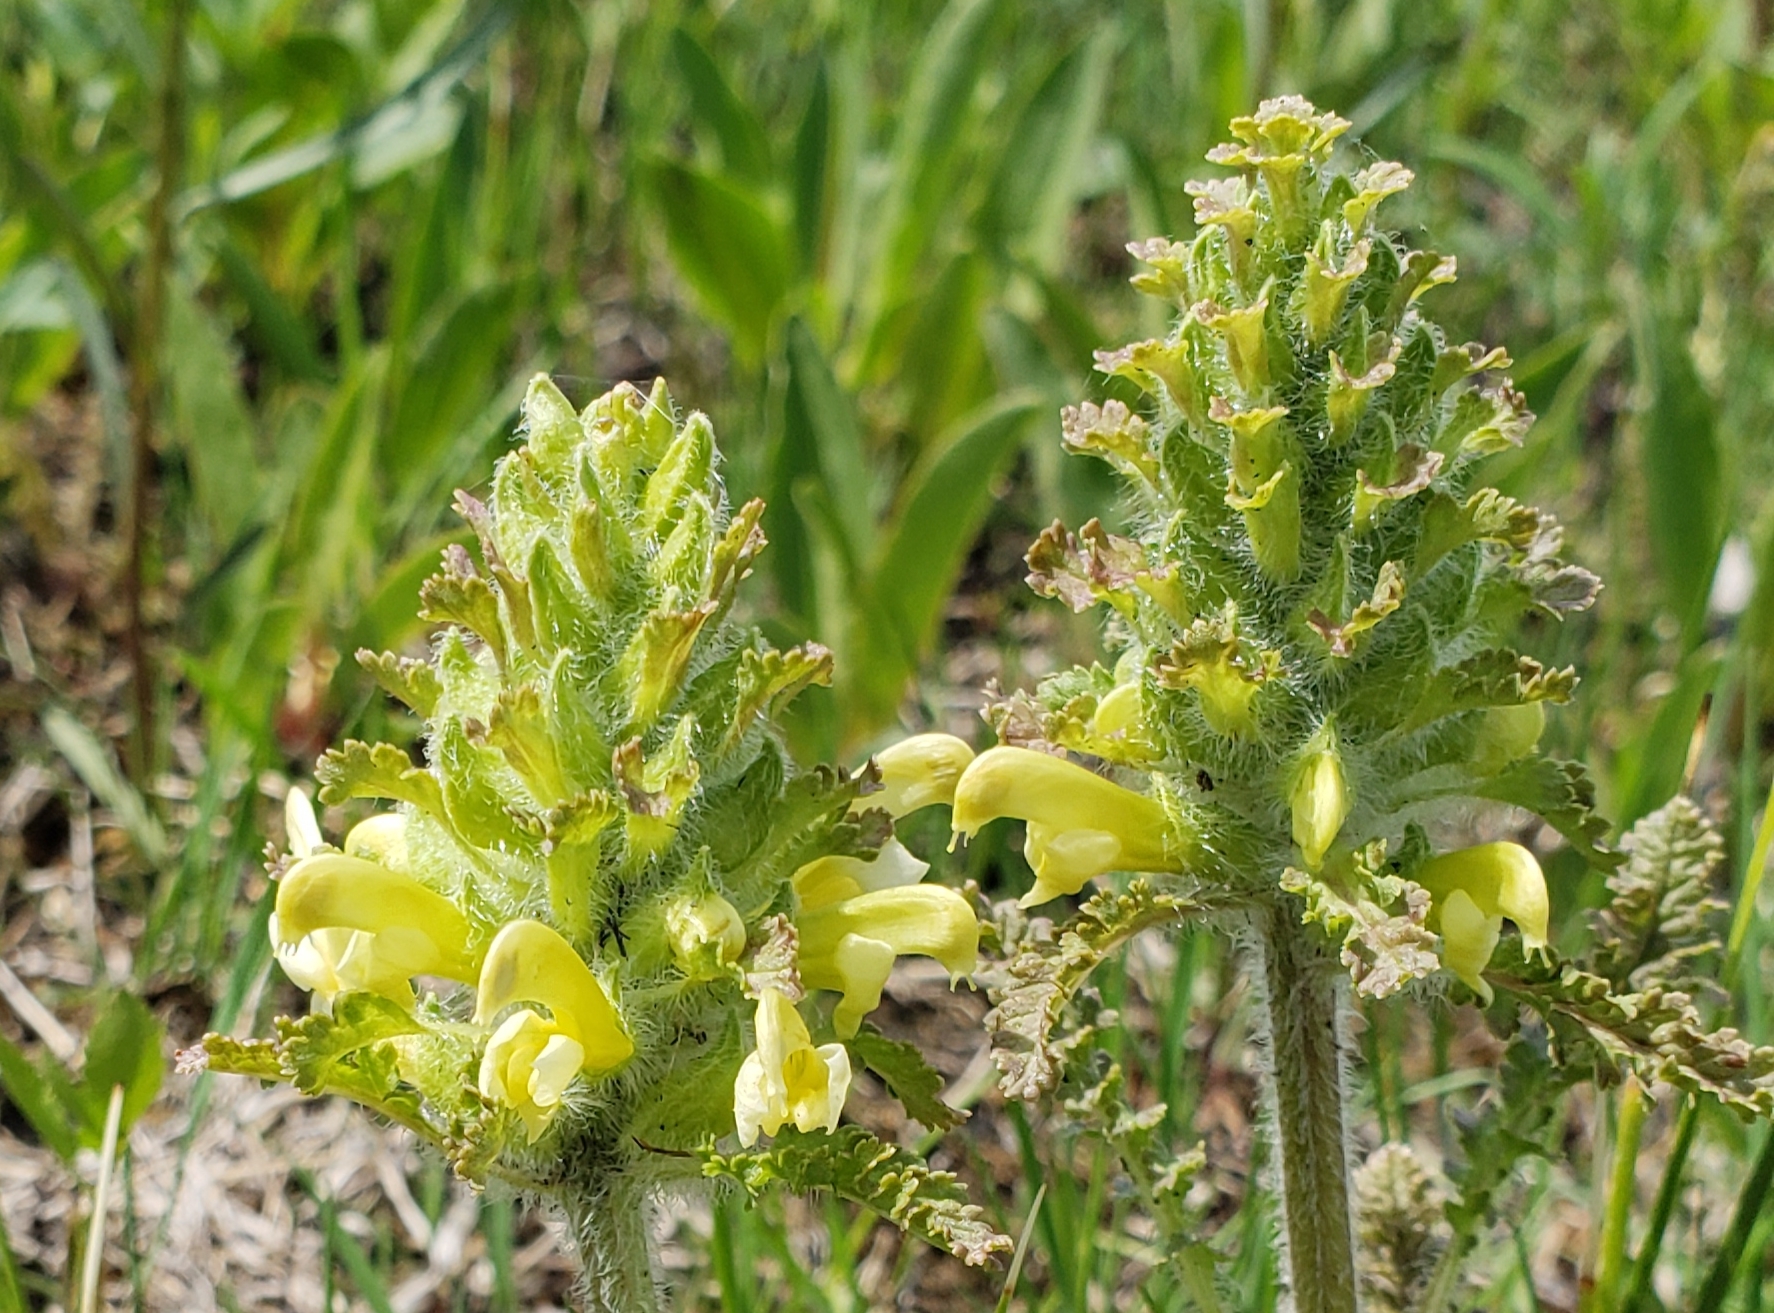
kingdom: Plantae
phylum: Tracheophyta
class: Magnoliopsida
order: Lamiales
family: Orobanchaceae
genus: Pedicularis
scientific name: Pedicularis canadensis
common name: Early lousewort
